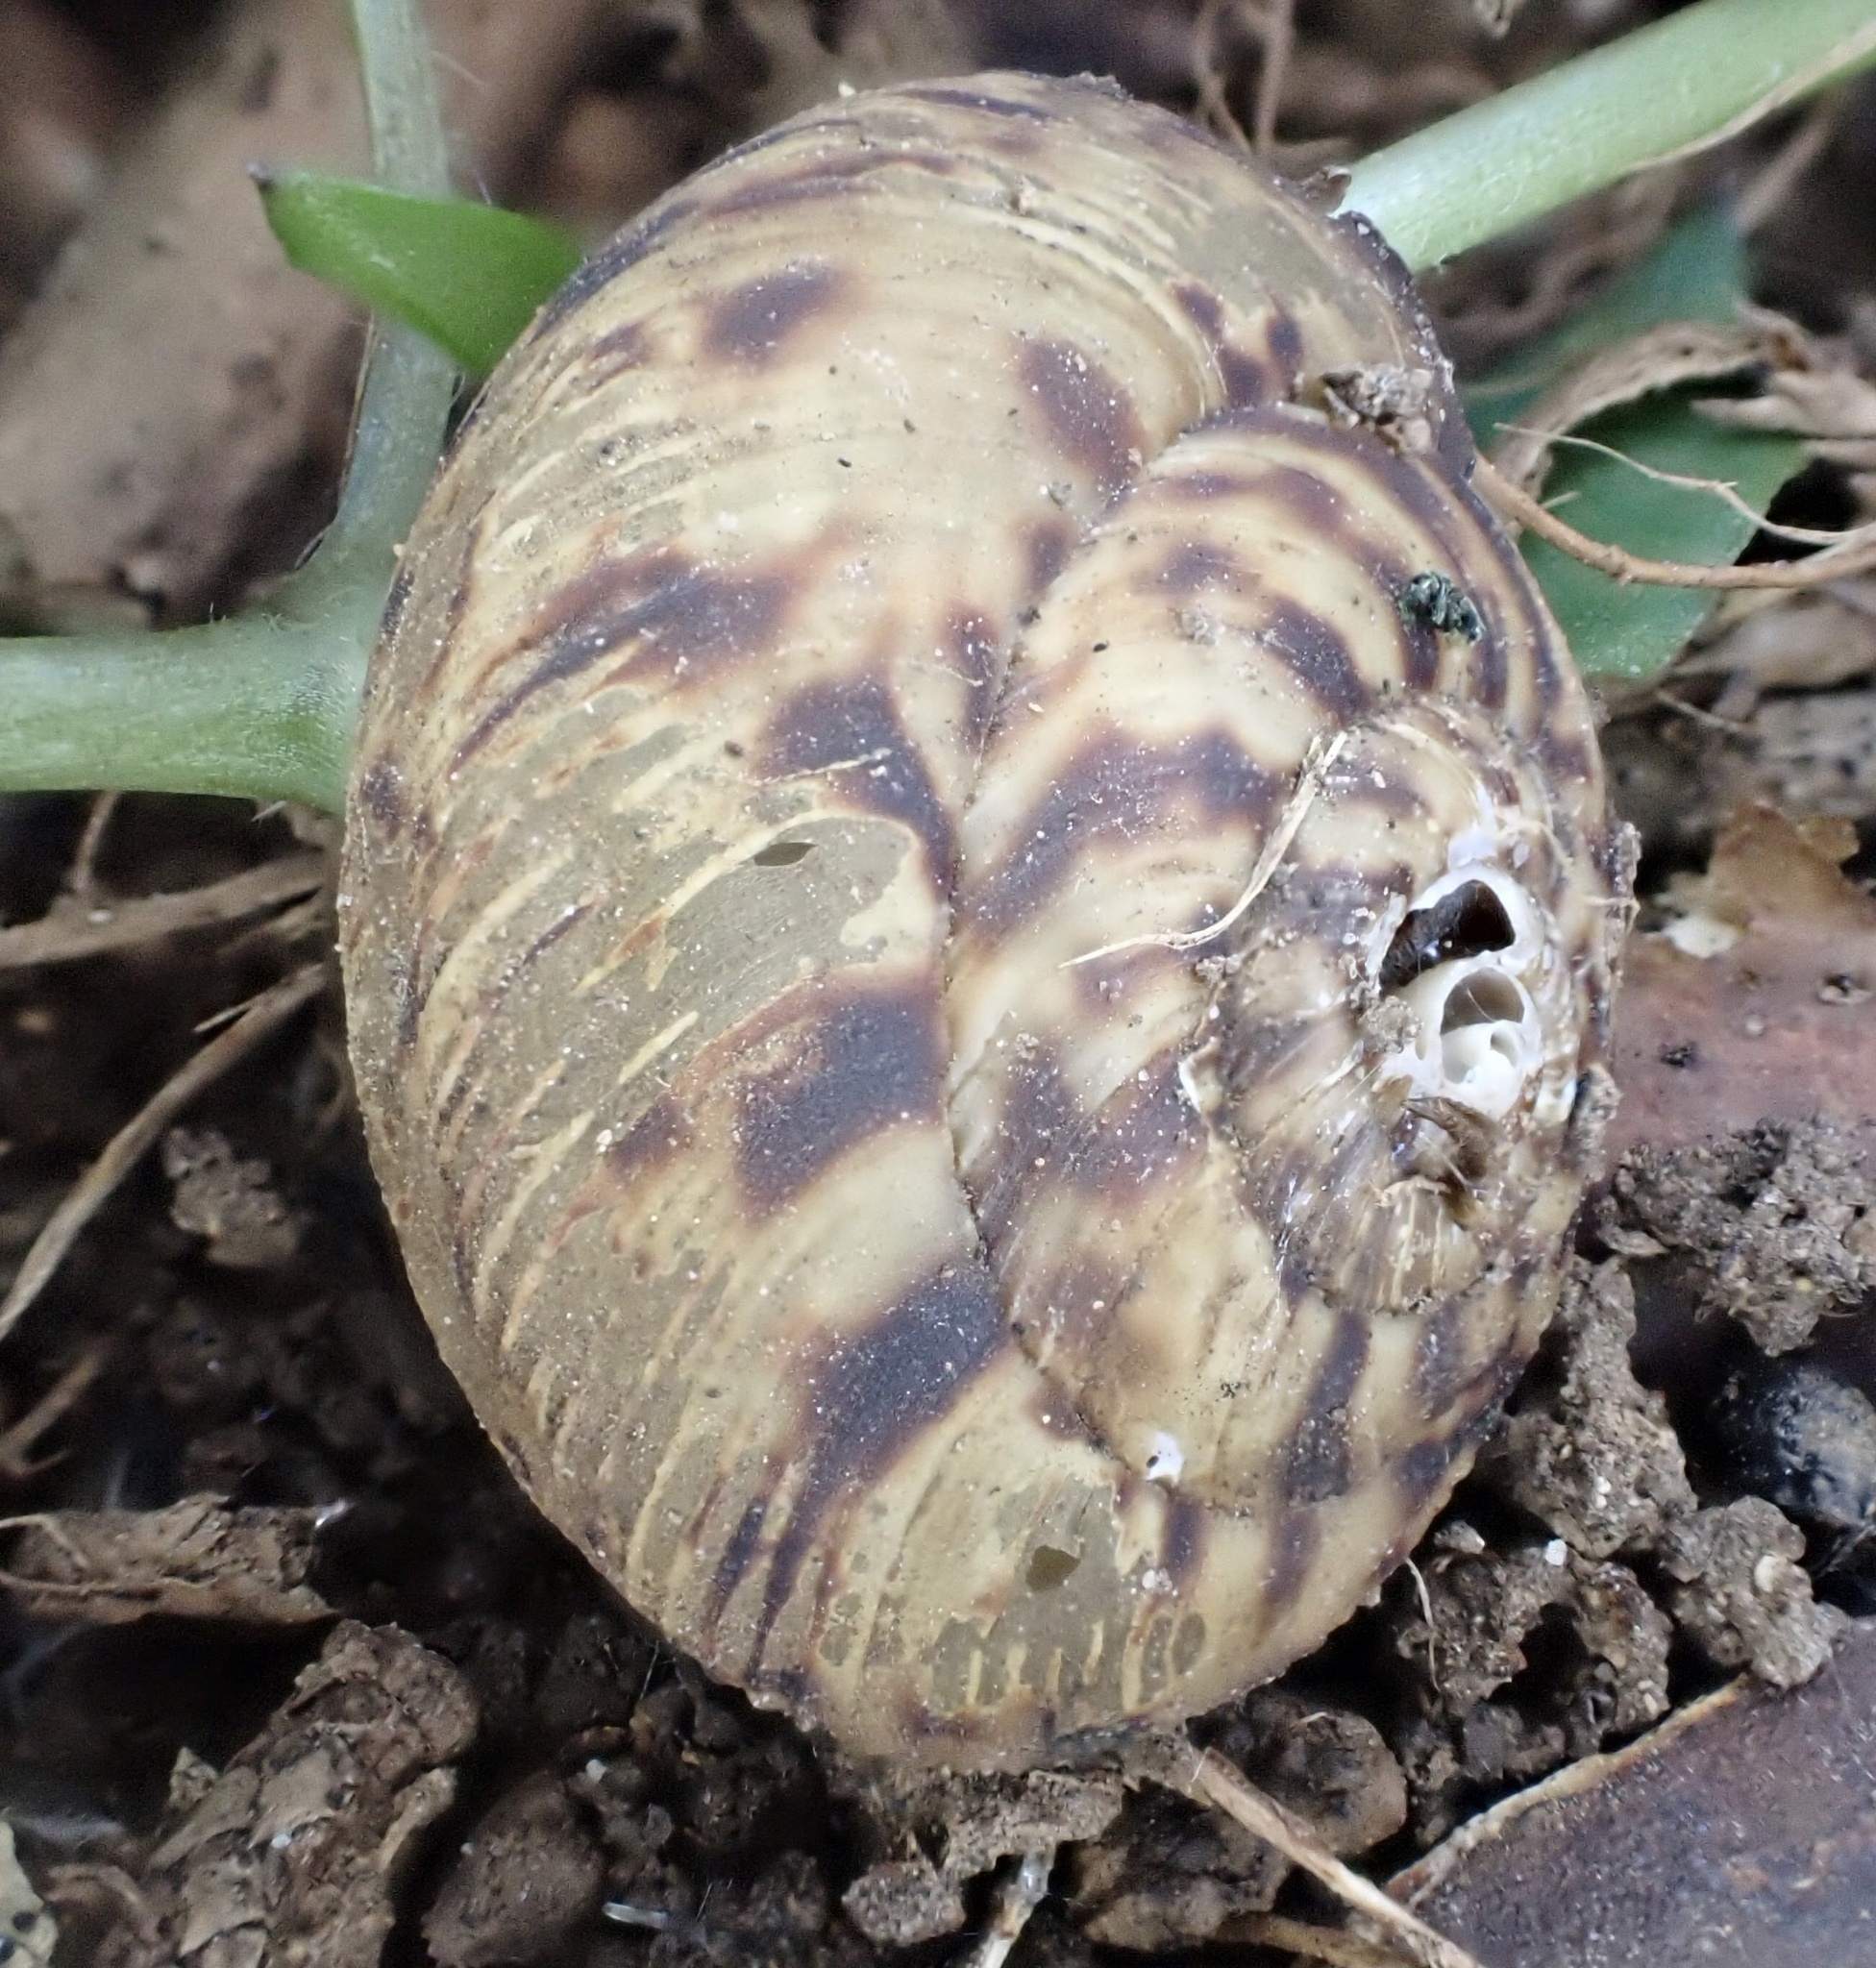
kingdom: Animalia
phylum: Mollusca
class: Gastropoda
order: Stylommatophora
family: Discidae
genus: Anguispira
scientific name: Anguispira alternata
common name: Flamed tigersnail
